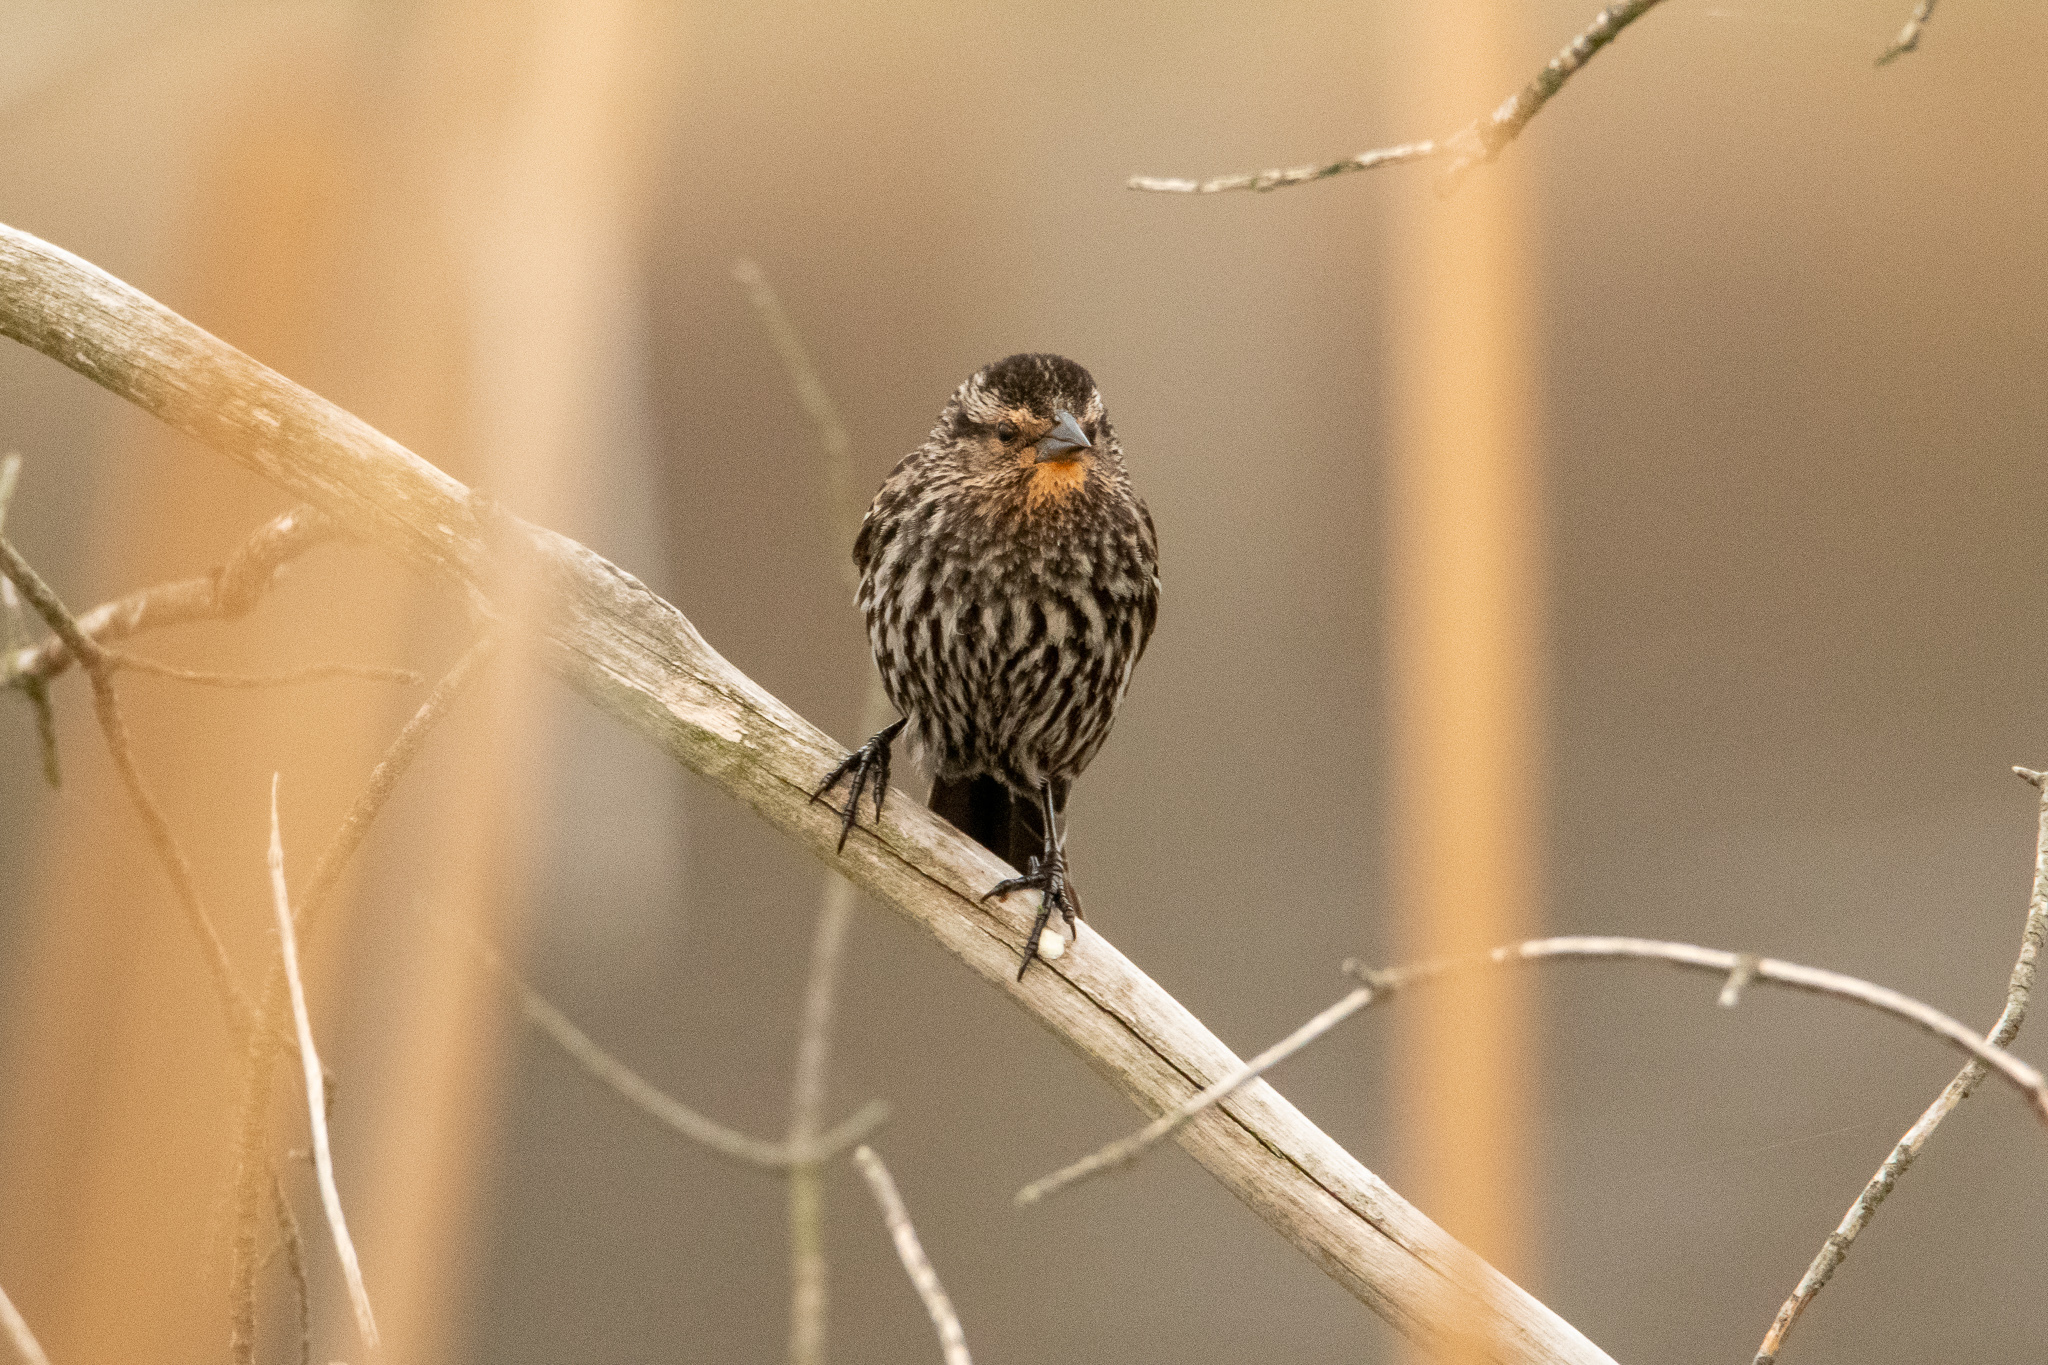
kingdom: Animalia
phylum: Chordata
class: Aves
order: Passeriformes
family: Icteridae
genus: Agelaius
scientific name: Agelaius phoeniceus
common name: Red-winged blackbird
